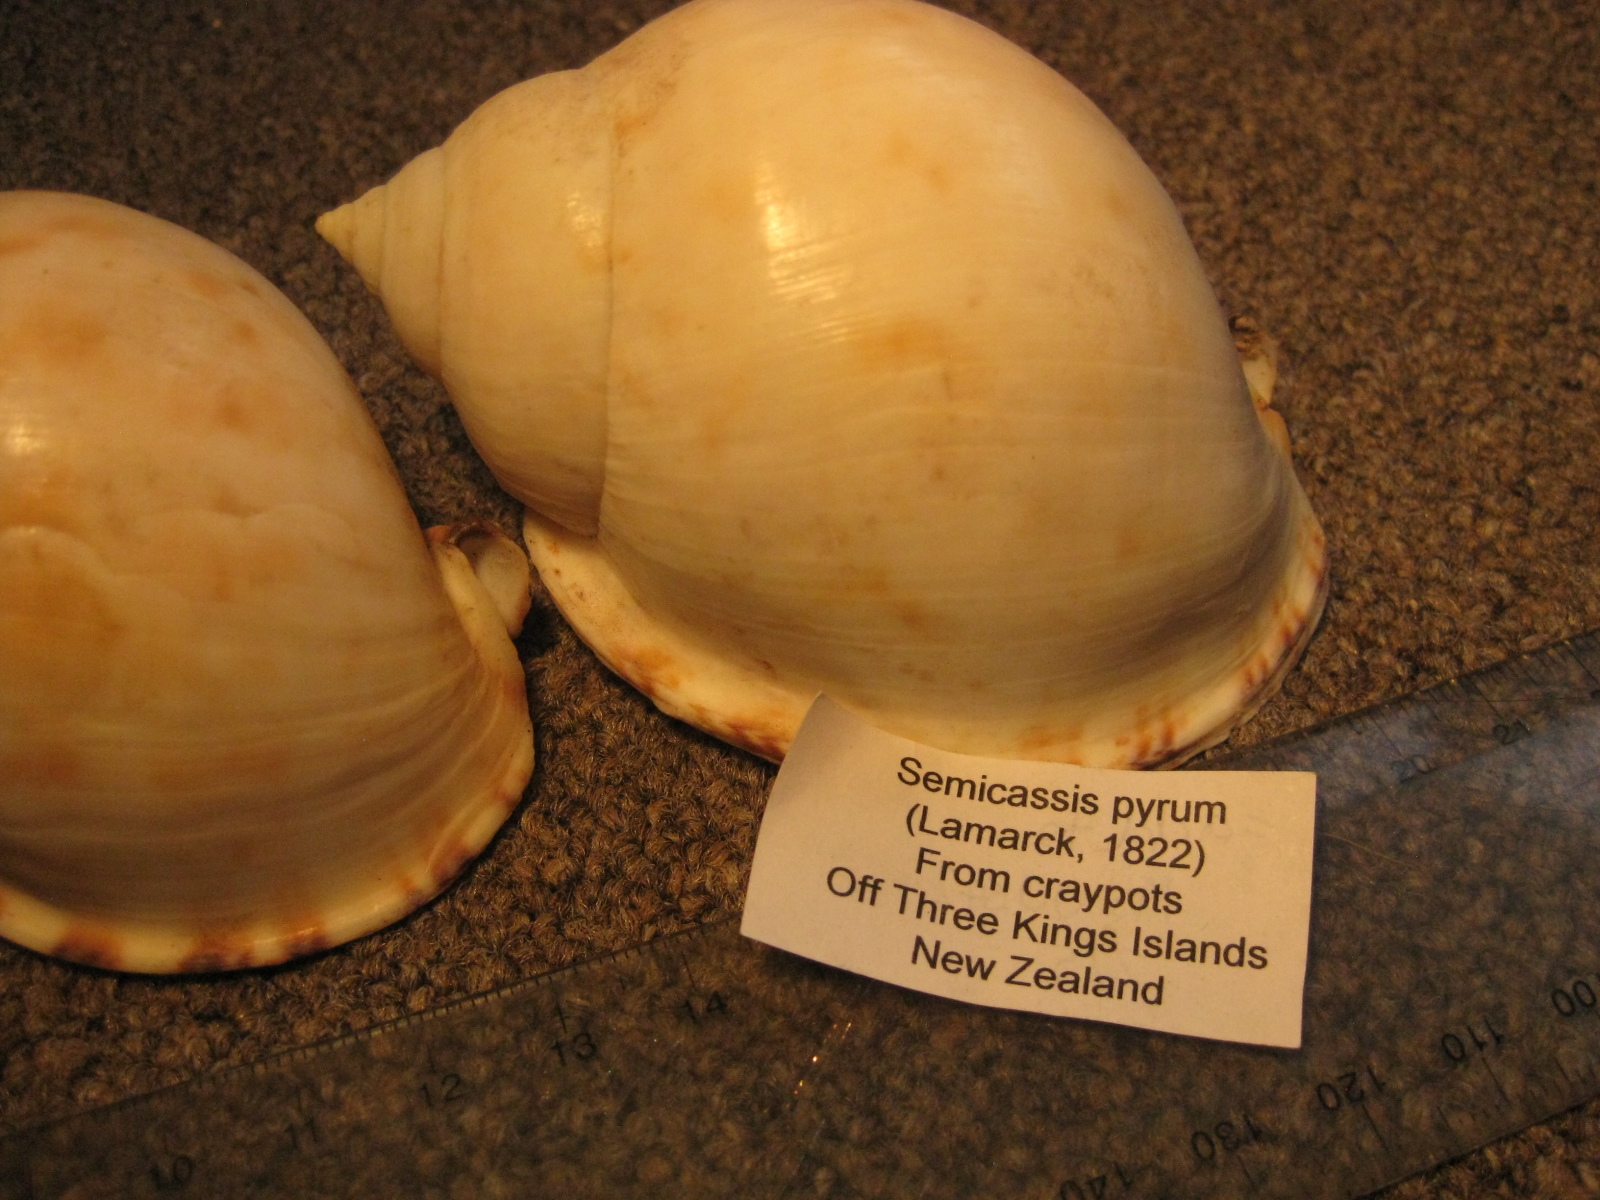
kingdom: Animalia
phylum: Mollusca
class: Gastropoda
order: Littorinimorpha
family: Cassidae
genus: Semicassis
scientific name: Semicassis pyrum
